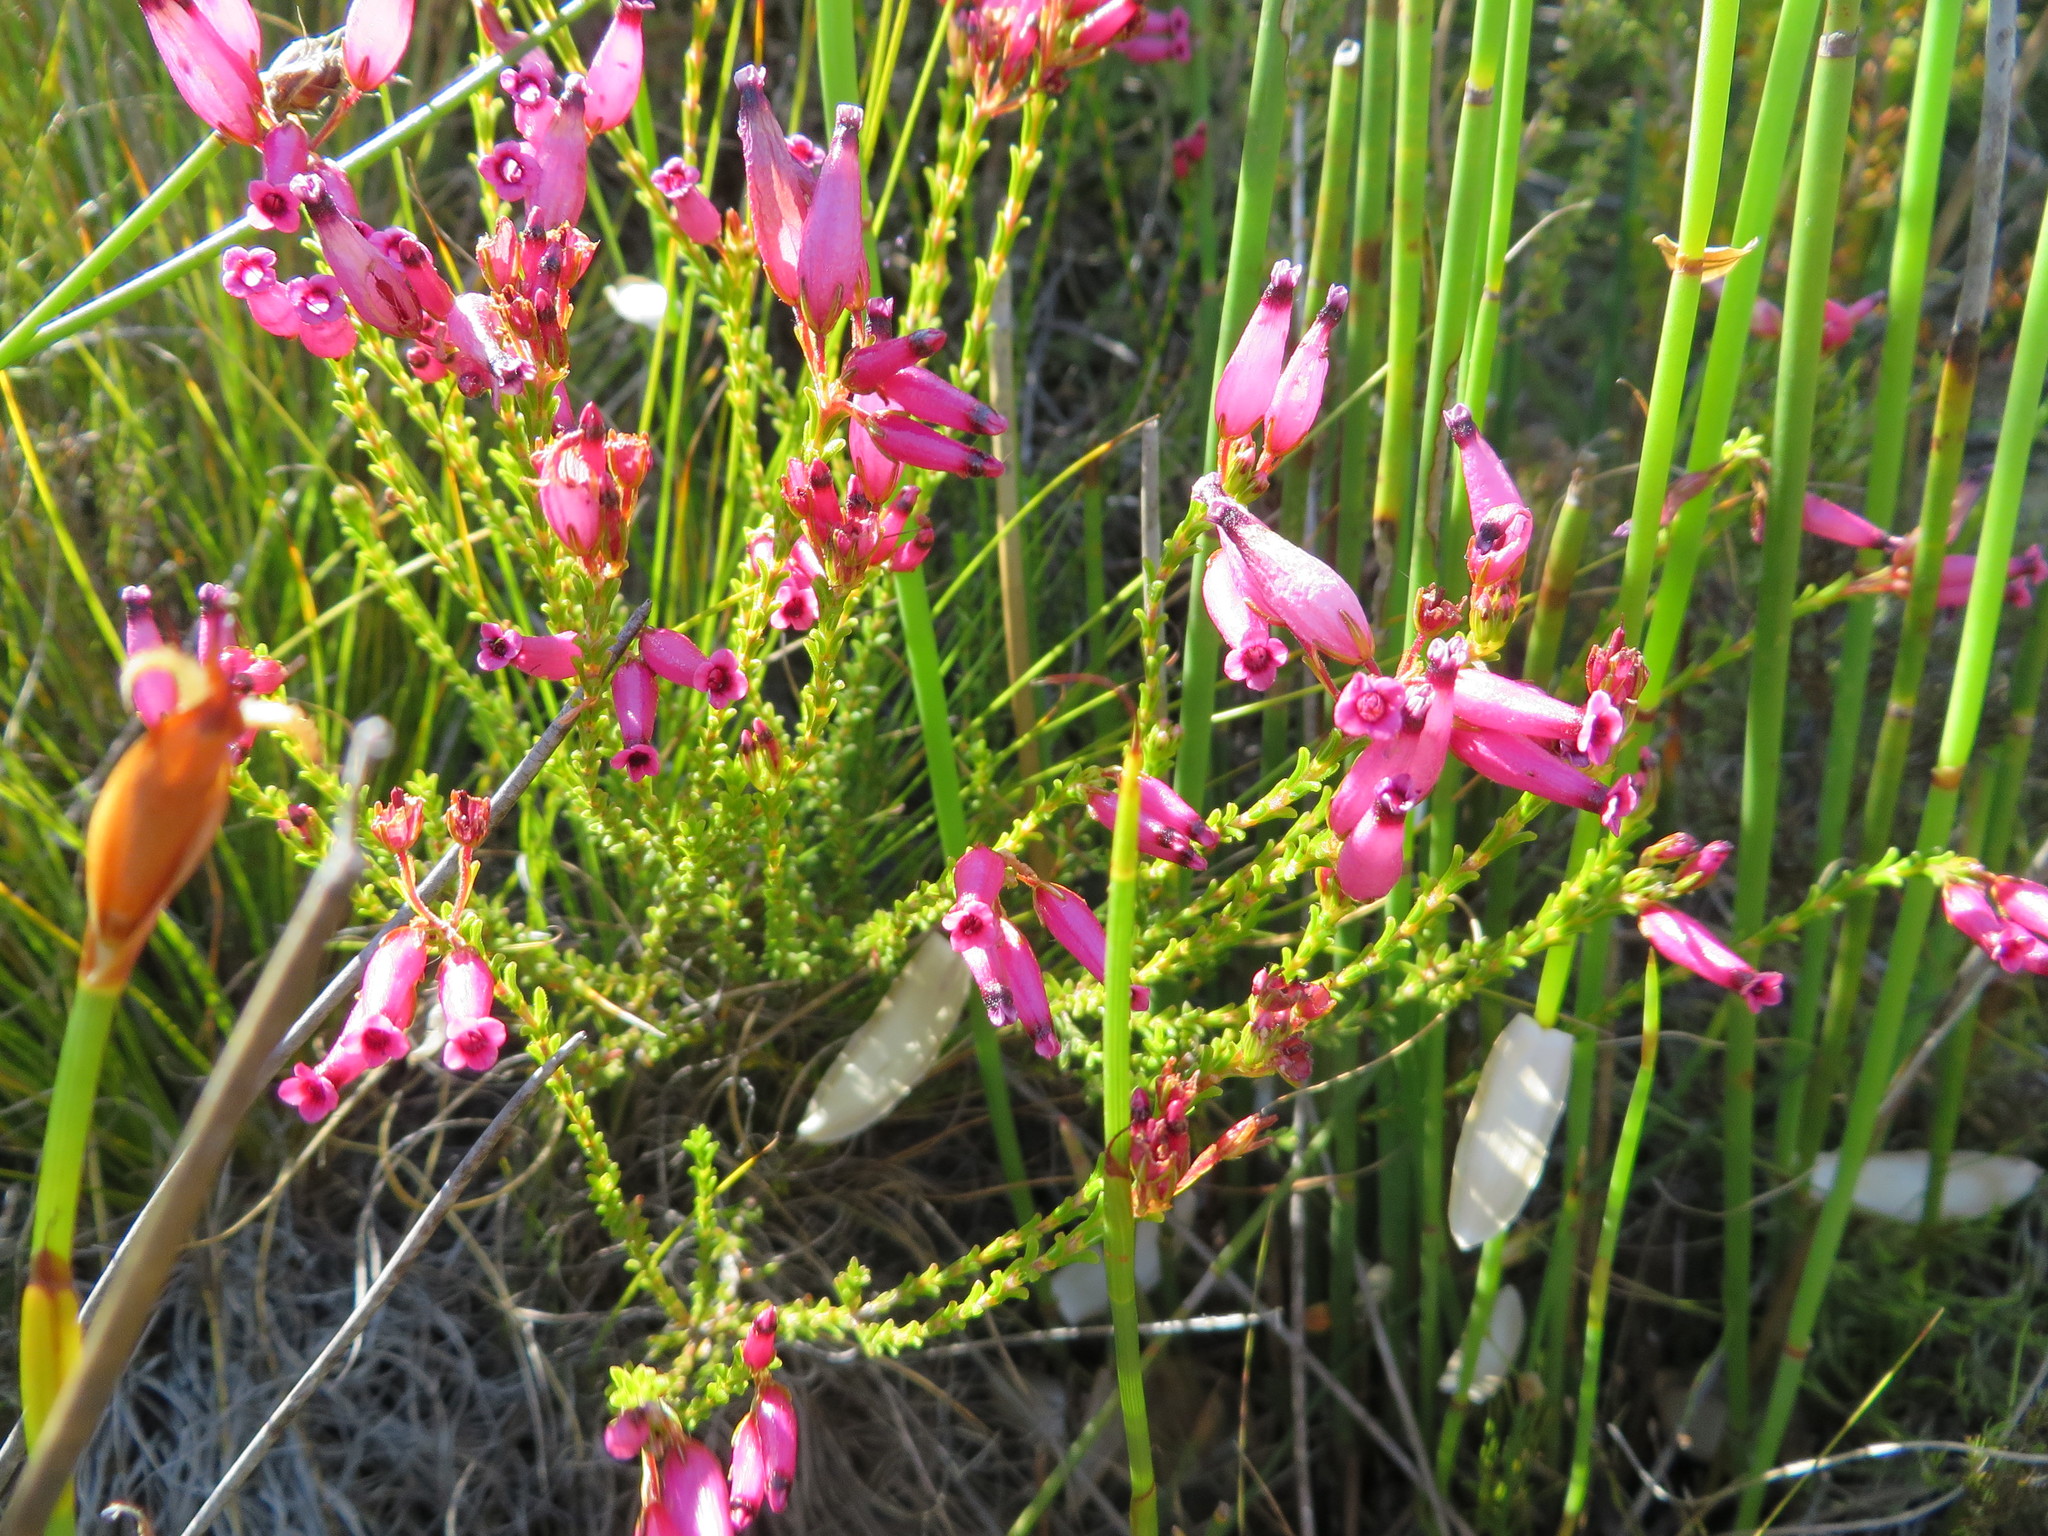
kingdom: Plantae
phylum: Tracheophyta
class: Magnoliopsida
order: Ericales
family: Ericaceae
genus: Erica
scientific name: Erica curvifolia
